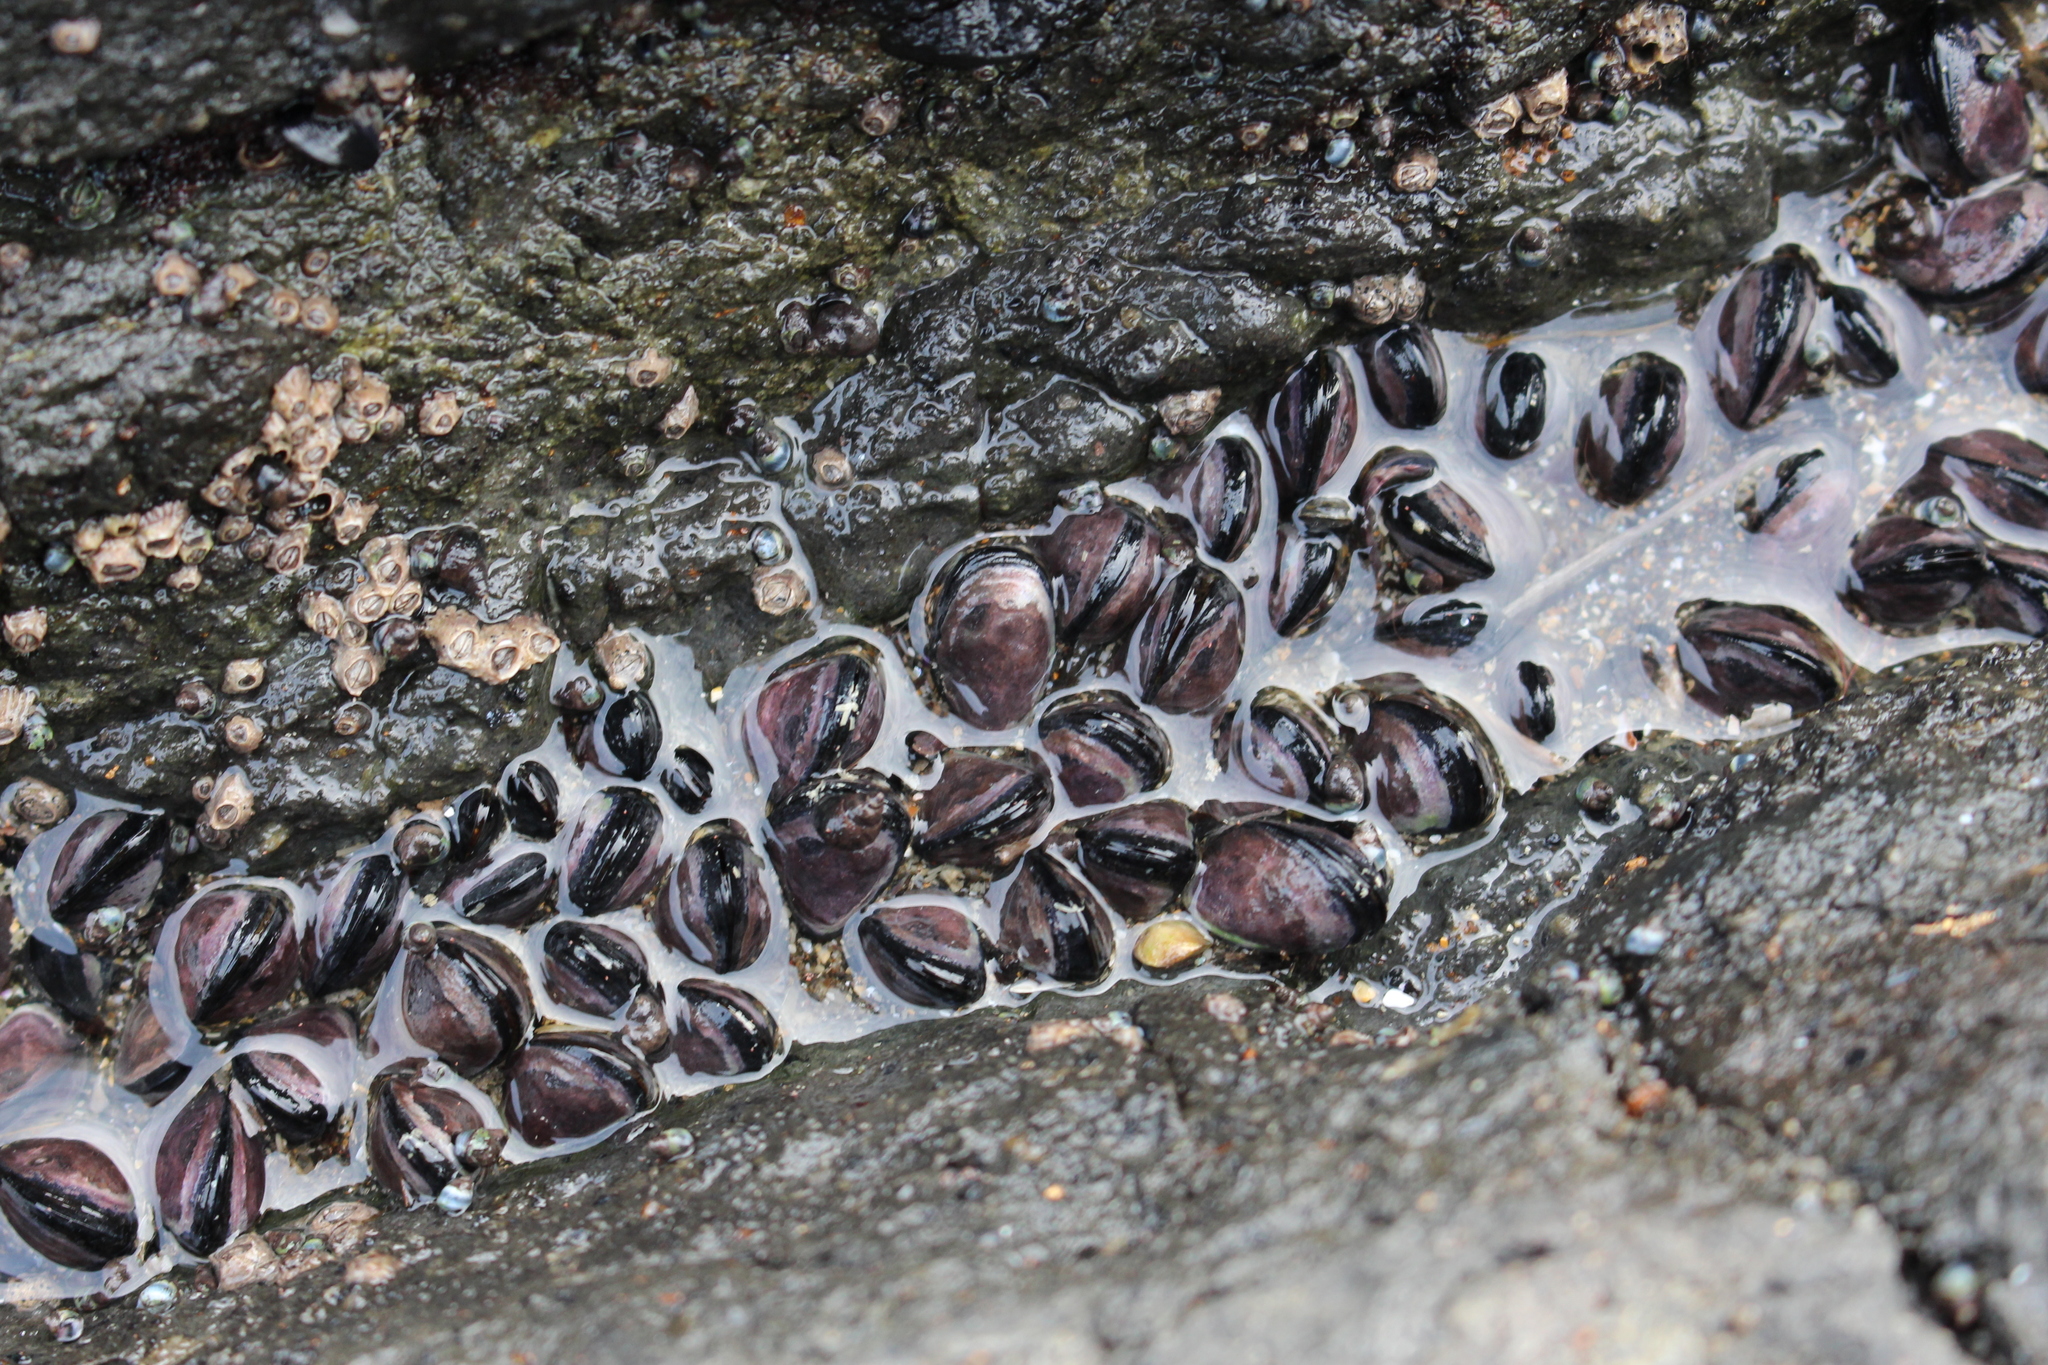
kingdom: Animalia
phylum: Mollusca
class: Bivalvia
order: Mytilida
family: Mytilidae
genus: Xenostrobus
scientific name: Xenostrobus neozelanicus
